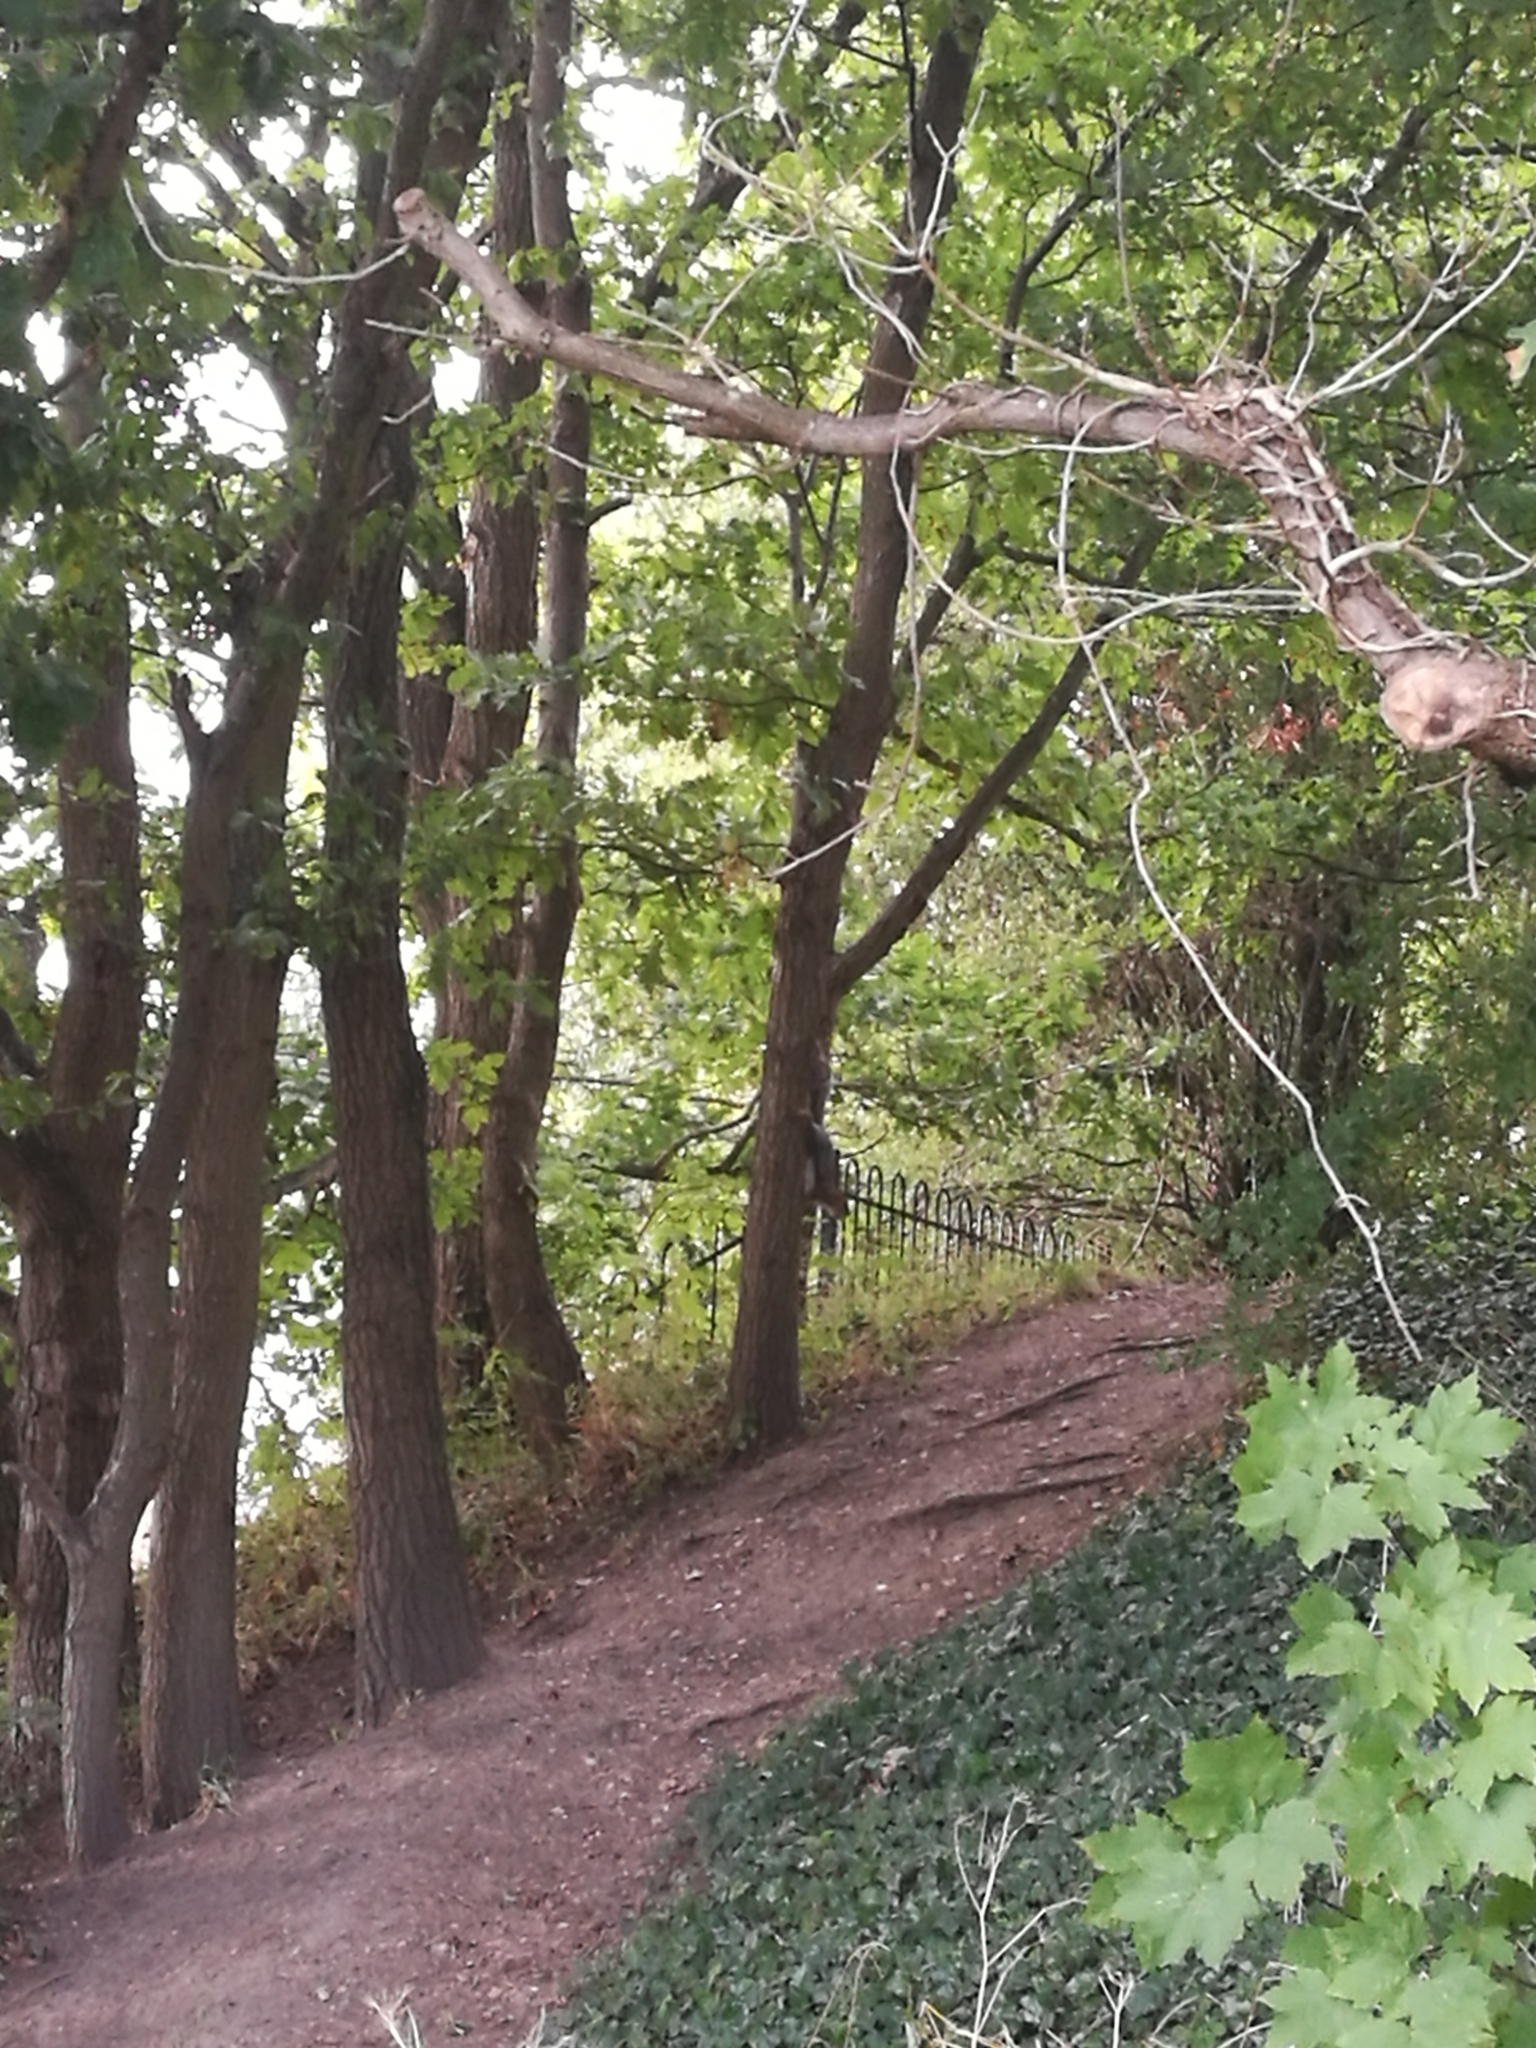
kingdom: Animalia
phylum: Chordata
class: Mammalia
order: Rodentia
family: Sciuridae
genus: Sciurus
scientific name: Sciurus carolinensis
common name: Eastern gray squirrel
